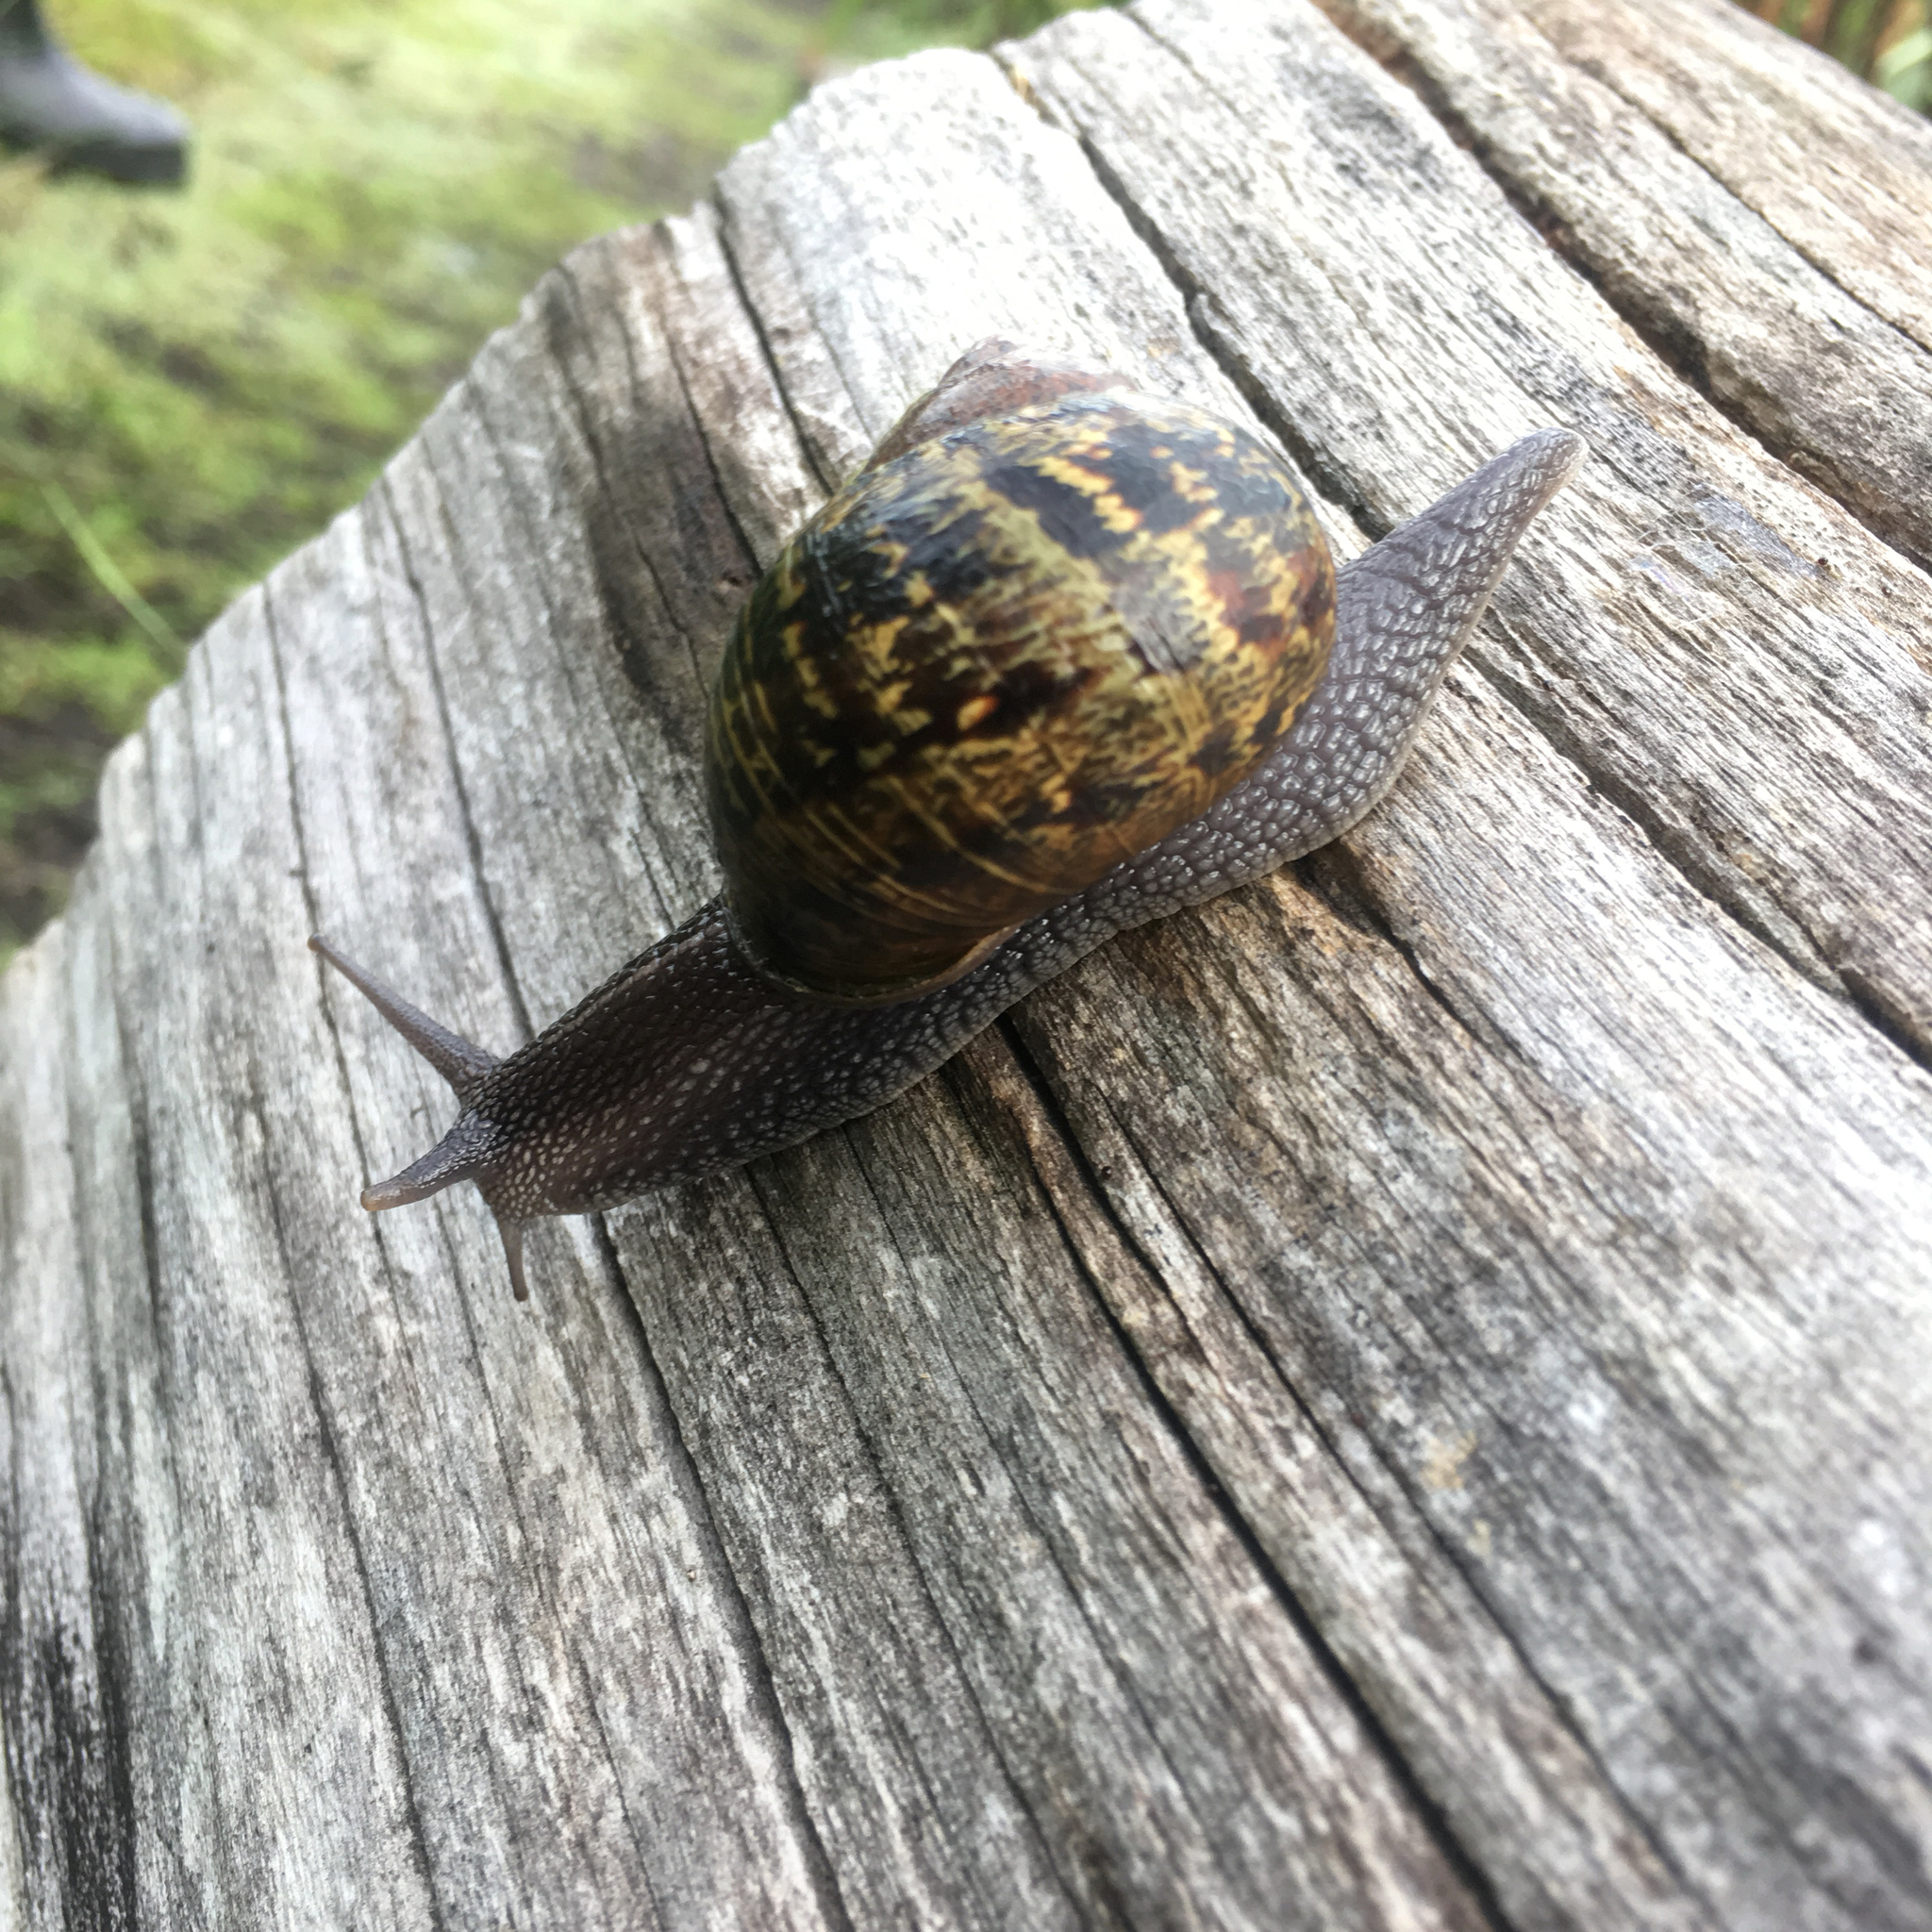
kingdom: Animalia
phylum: Mollusca
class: Gastropoda
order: Stylommatophora
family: Helicidae
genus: Cornu
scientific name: Cornu aspersum
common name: Brown garden snail
